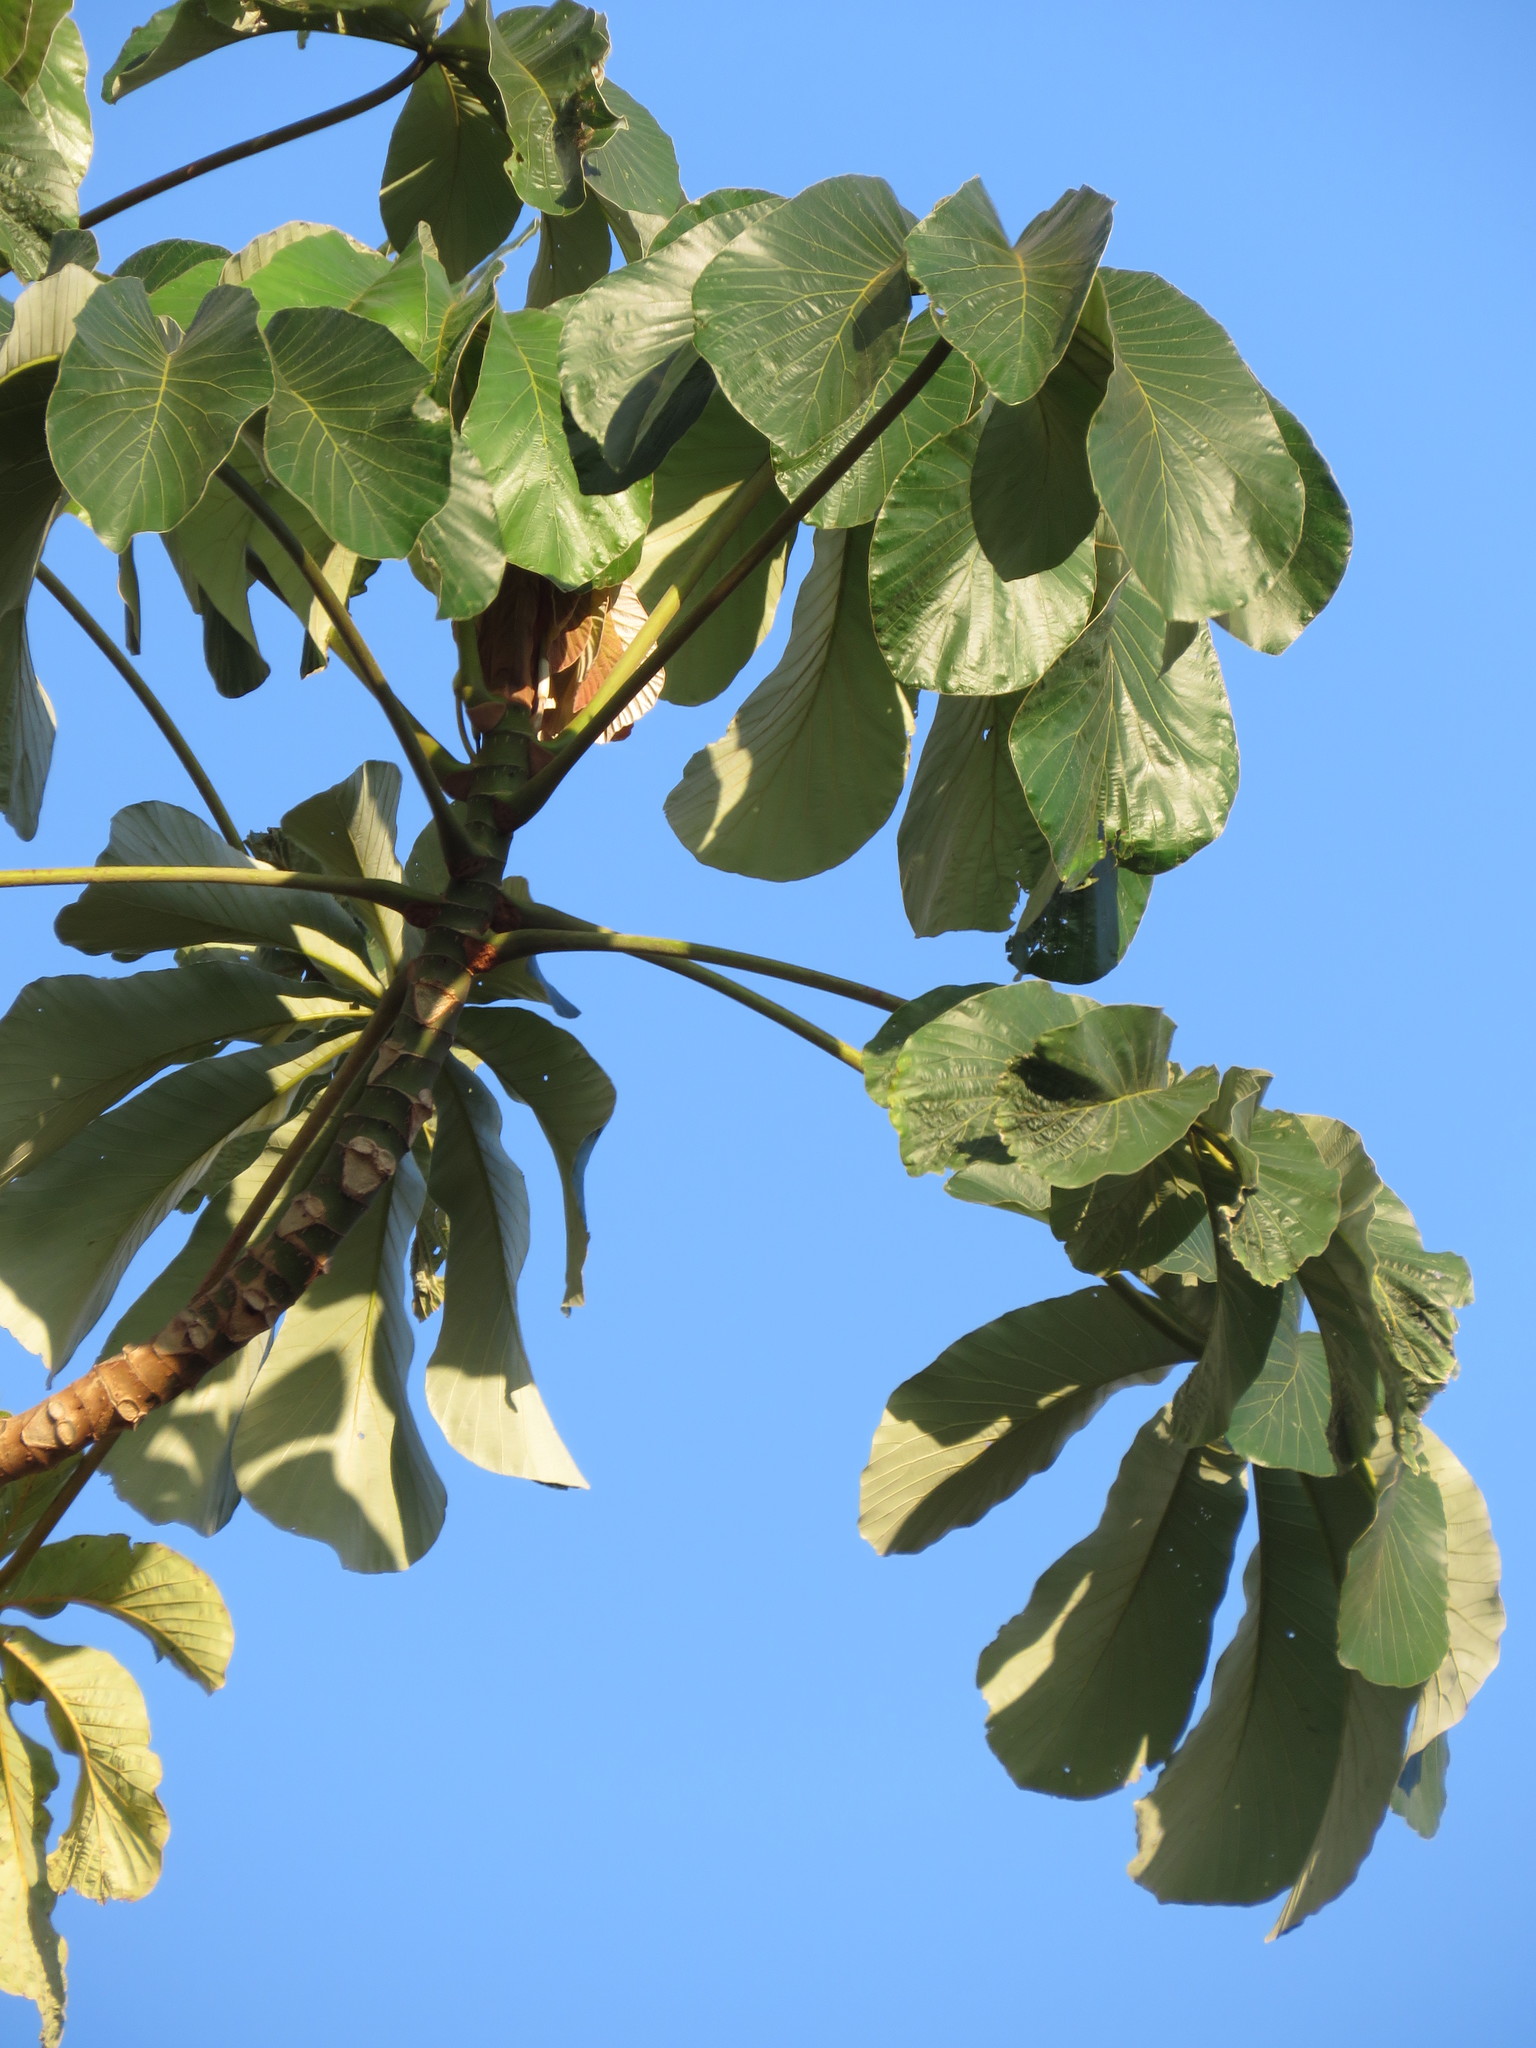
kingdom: Plantae
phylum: Tracheophyta
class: Magnoliopsida
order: Rosales
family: Urticaceae
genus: Cecropia
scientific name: Cecropia concolor
